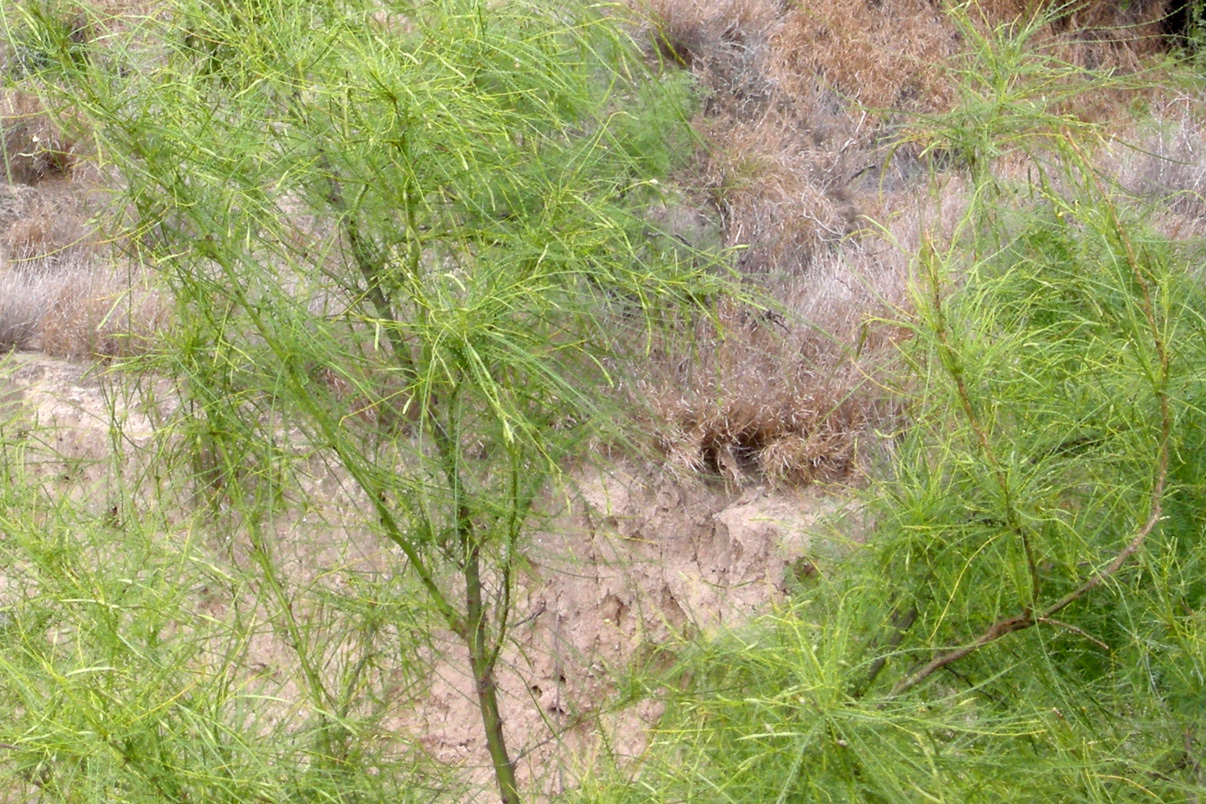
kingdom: Plantae
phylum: Tracheophyta
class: Magnoliopsida
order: Fabales
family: Fabaceae
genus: Parkinsonia
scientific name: Parkinsonia aculeata
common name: Jerusalem thorn
